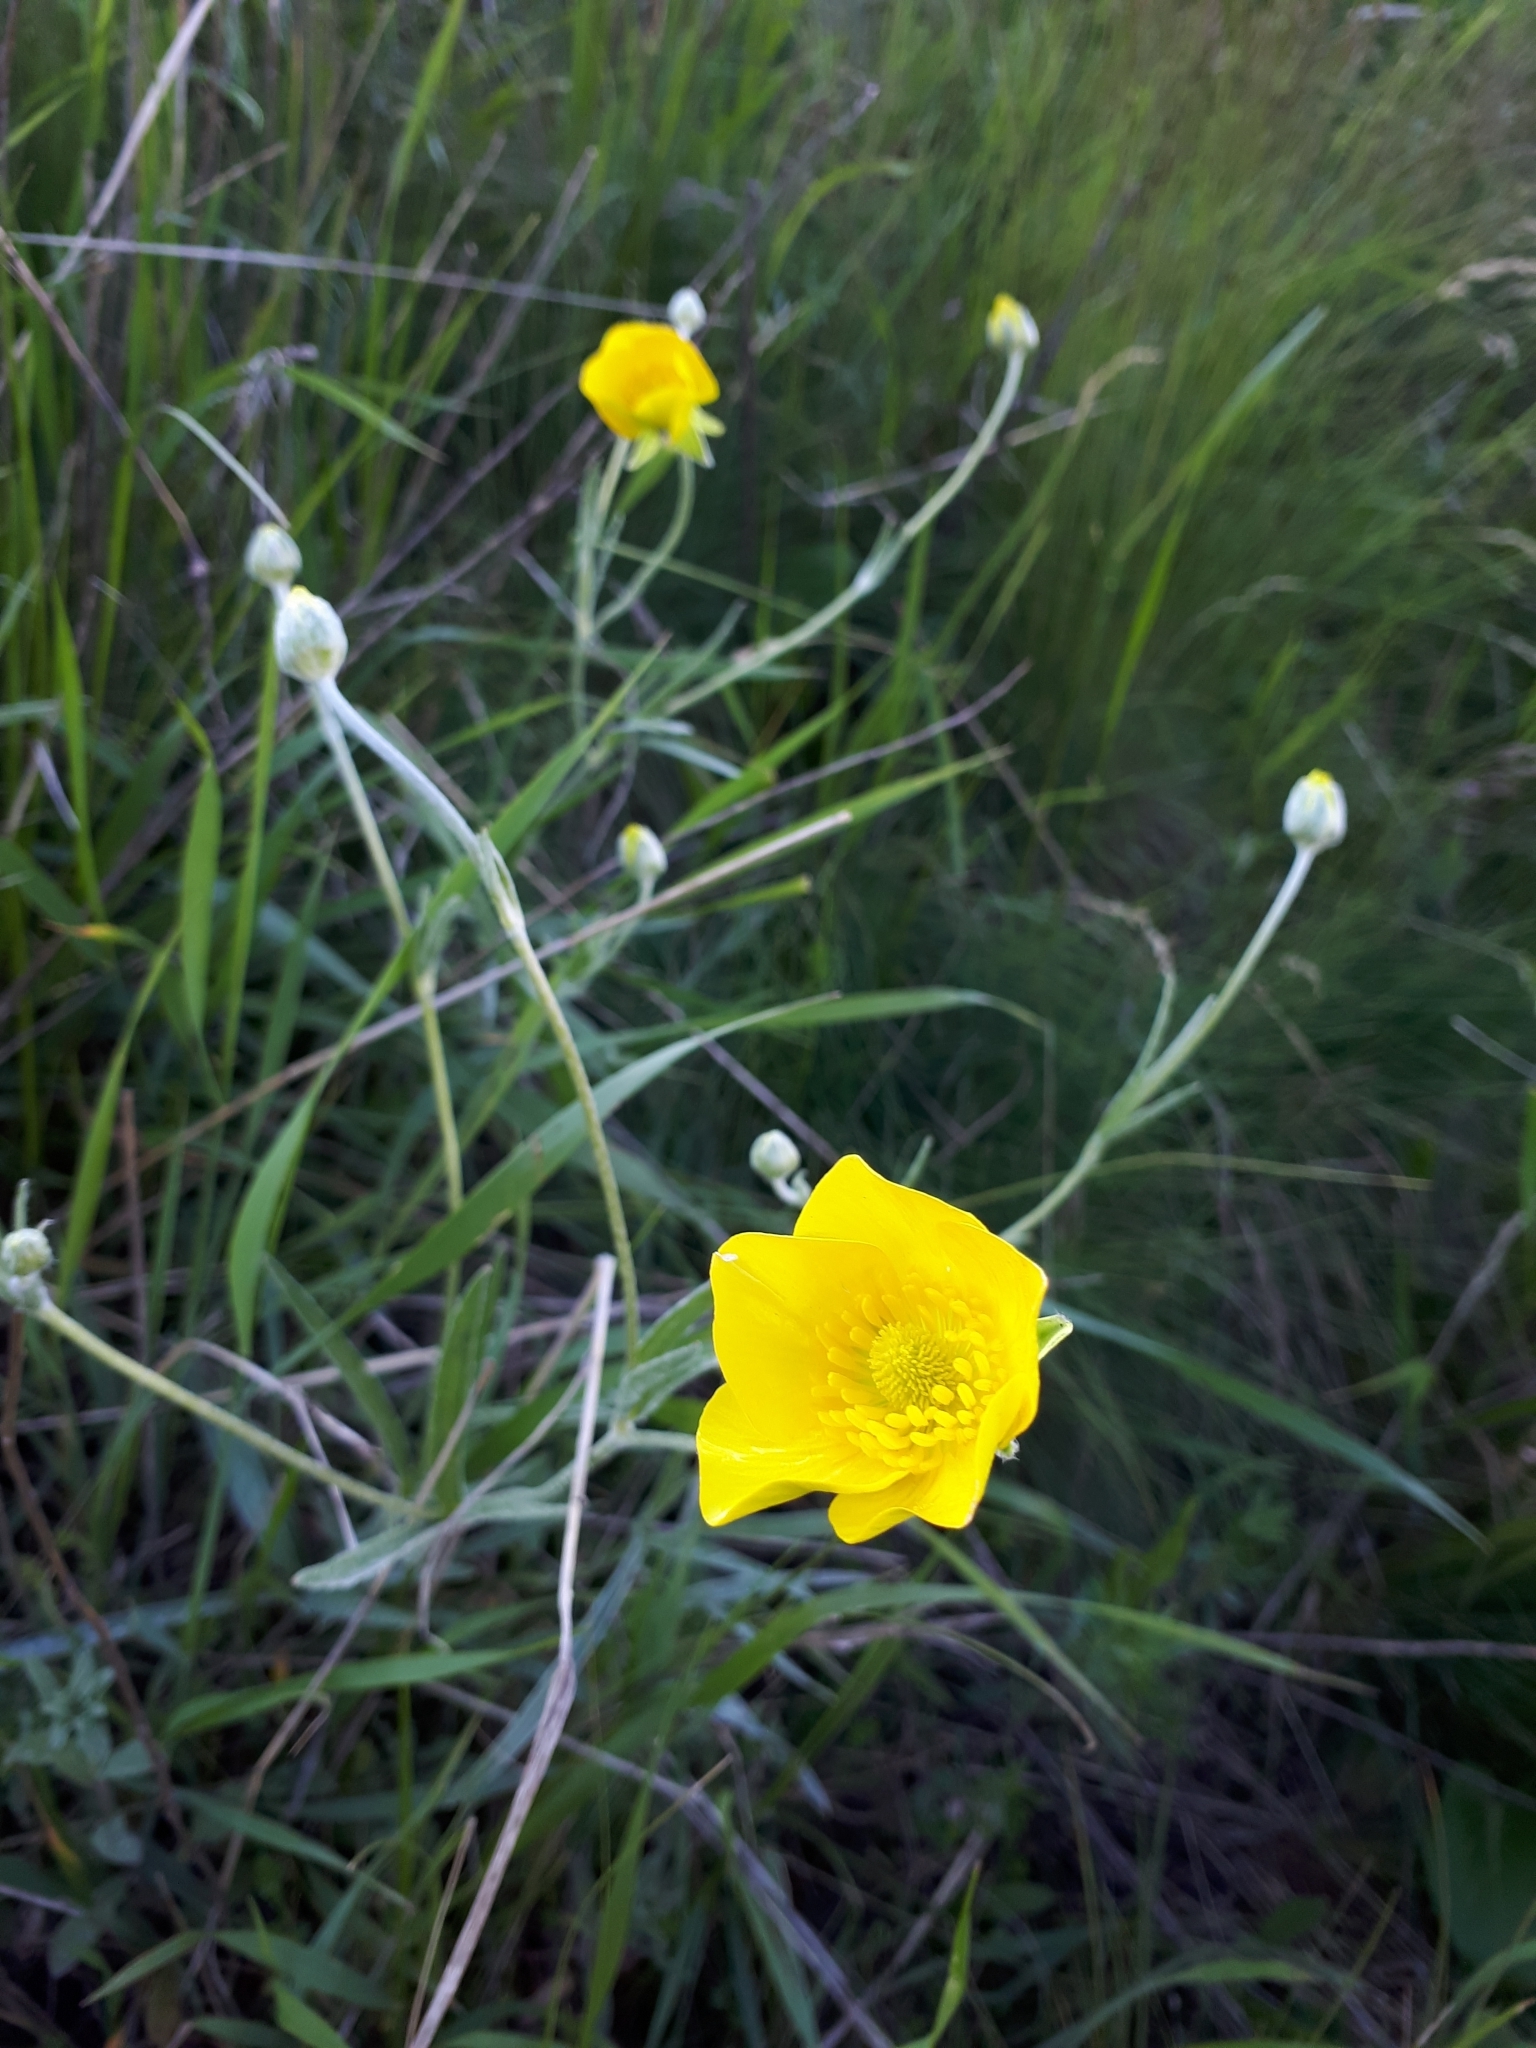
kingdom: Plantae
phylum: Tracheophyta
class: Magnoliopsida
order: Ranunculales
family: Ranunculaceae
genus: Ranunculus
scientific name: Ranunculus illyricus
